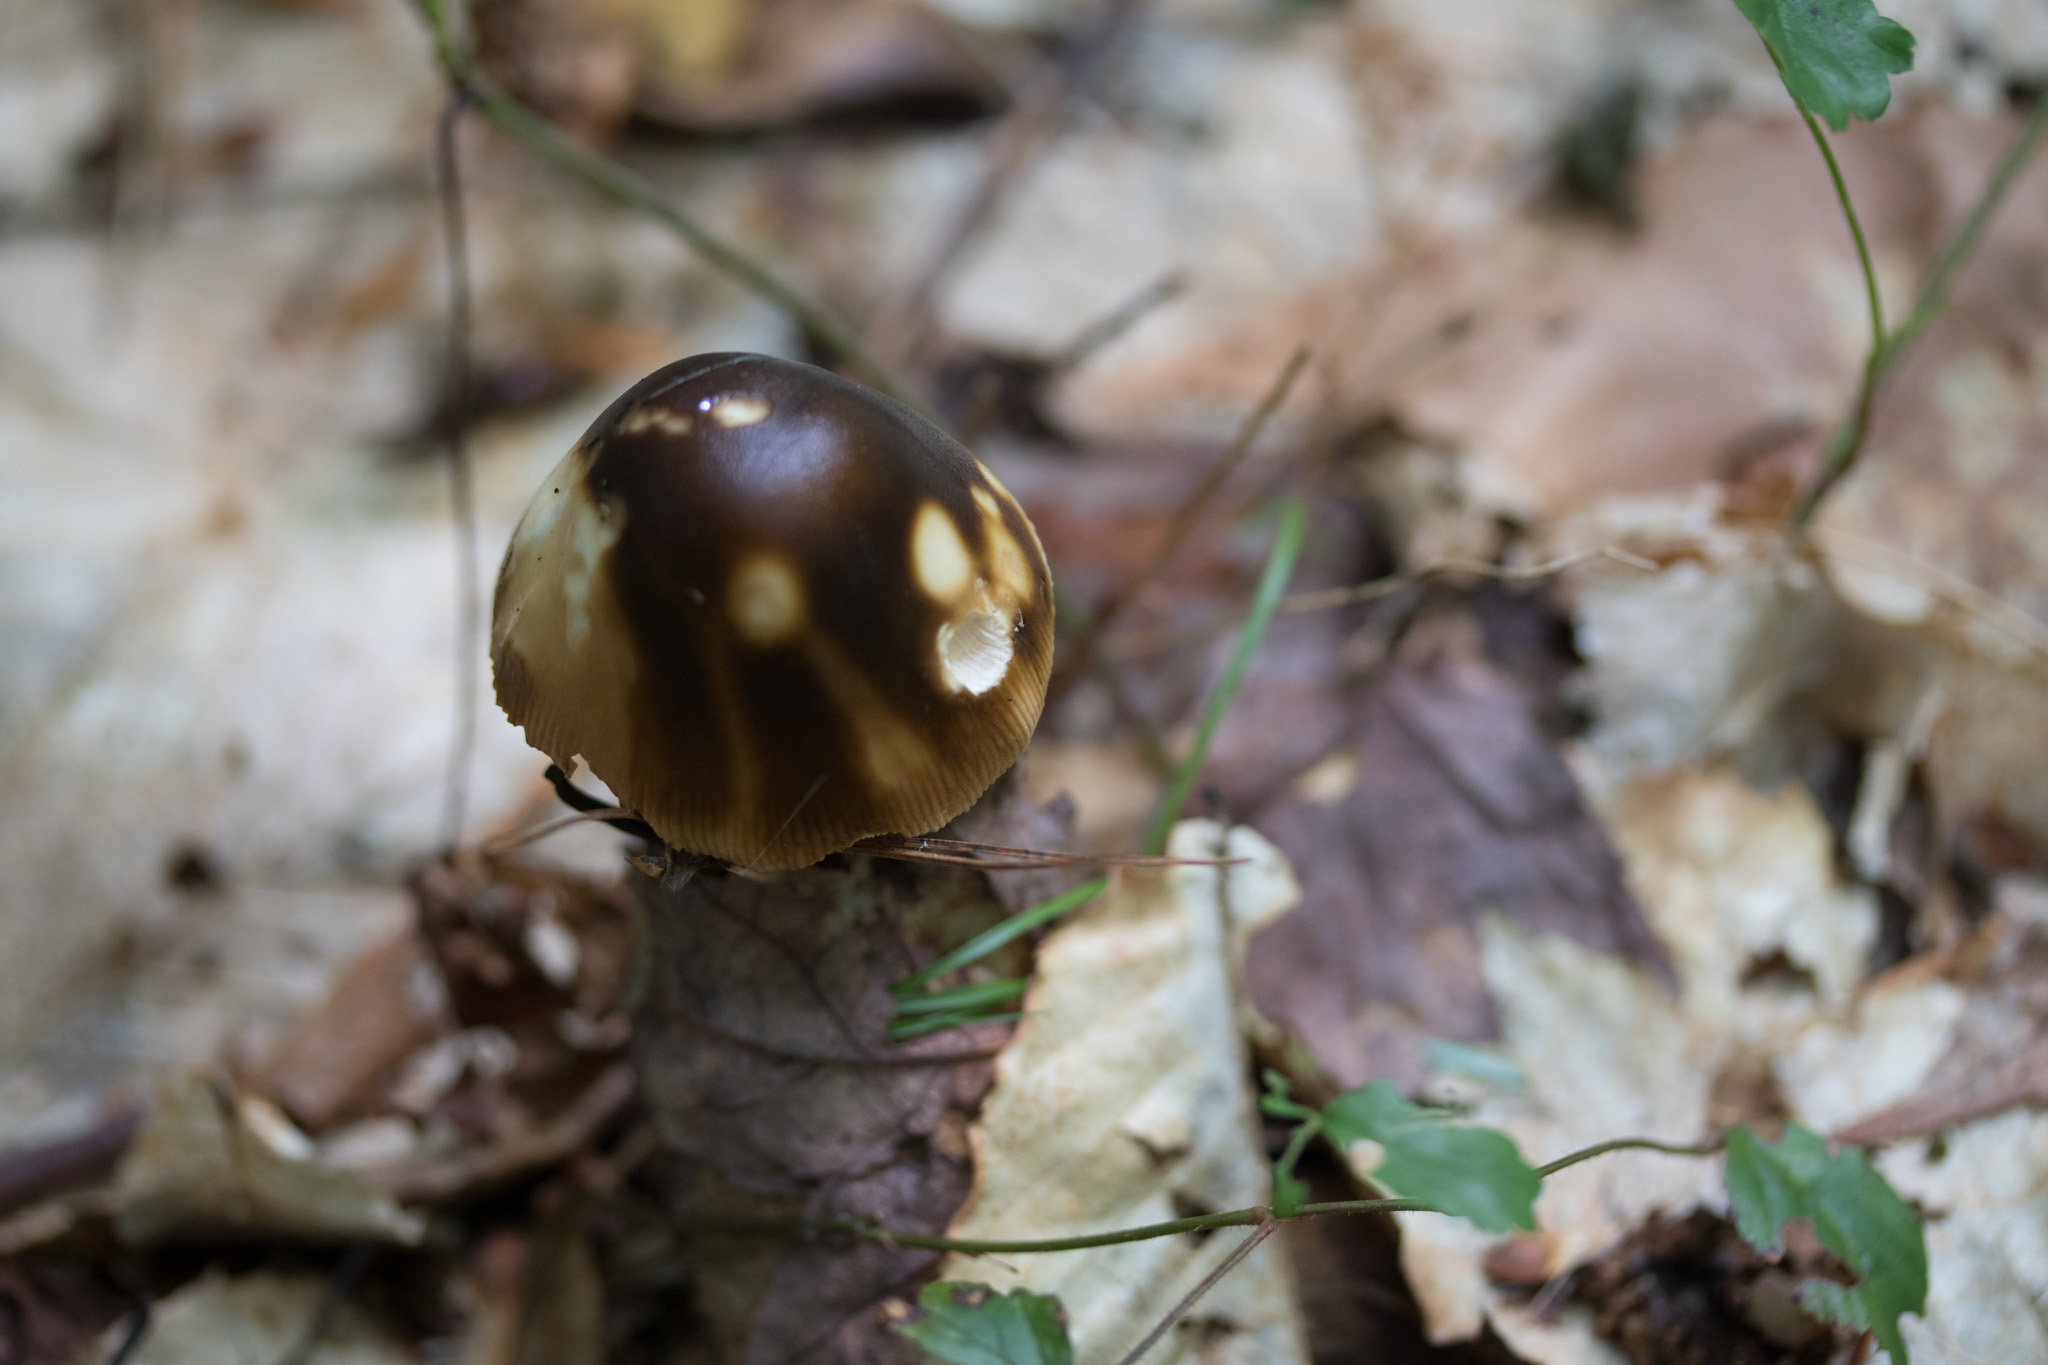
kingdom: Fungi
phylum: Basidiomycota
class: Agaricomycetes
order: Agaricales
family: Amanitaceae
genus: Amanita
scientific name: Amanita variicolor
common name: Piebald ringless amanita
